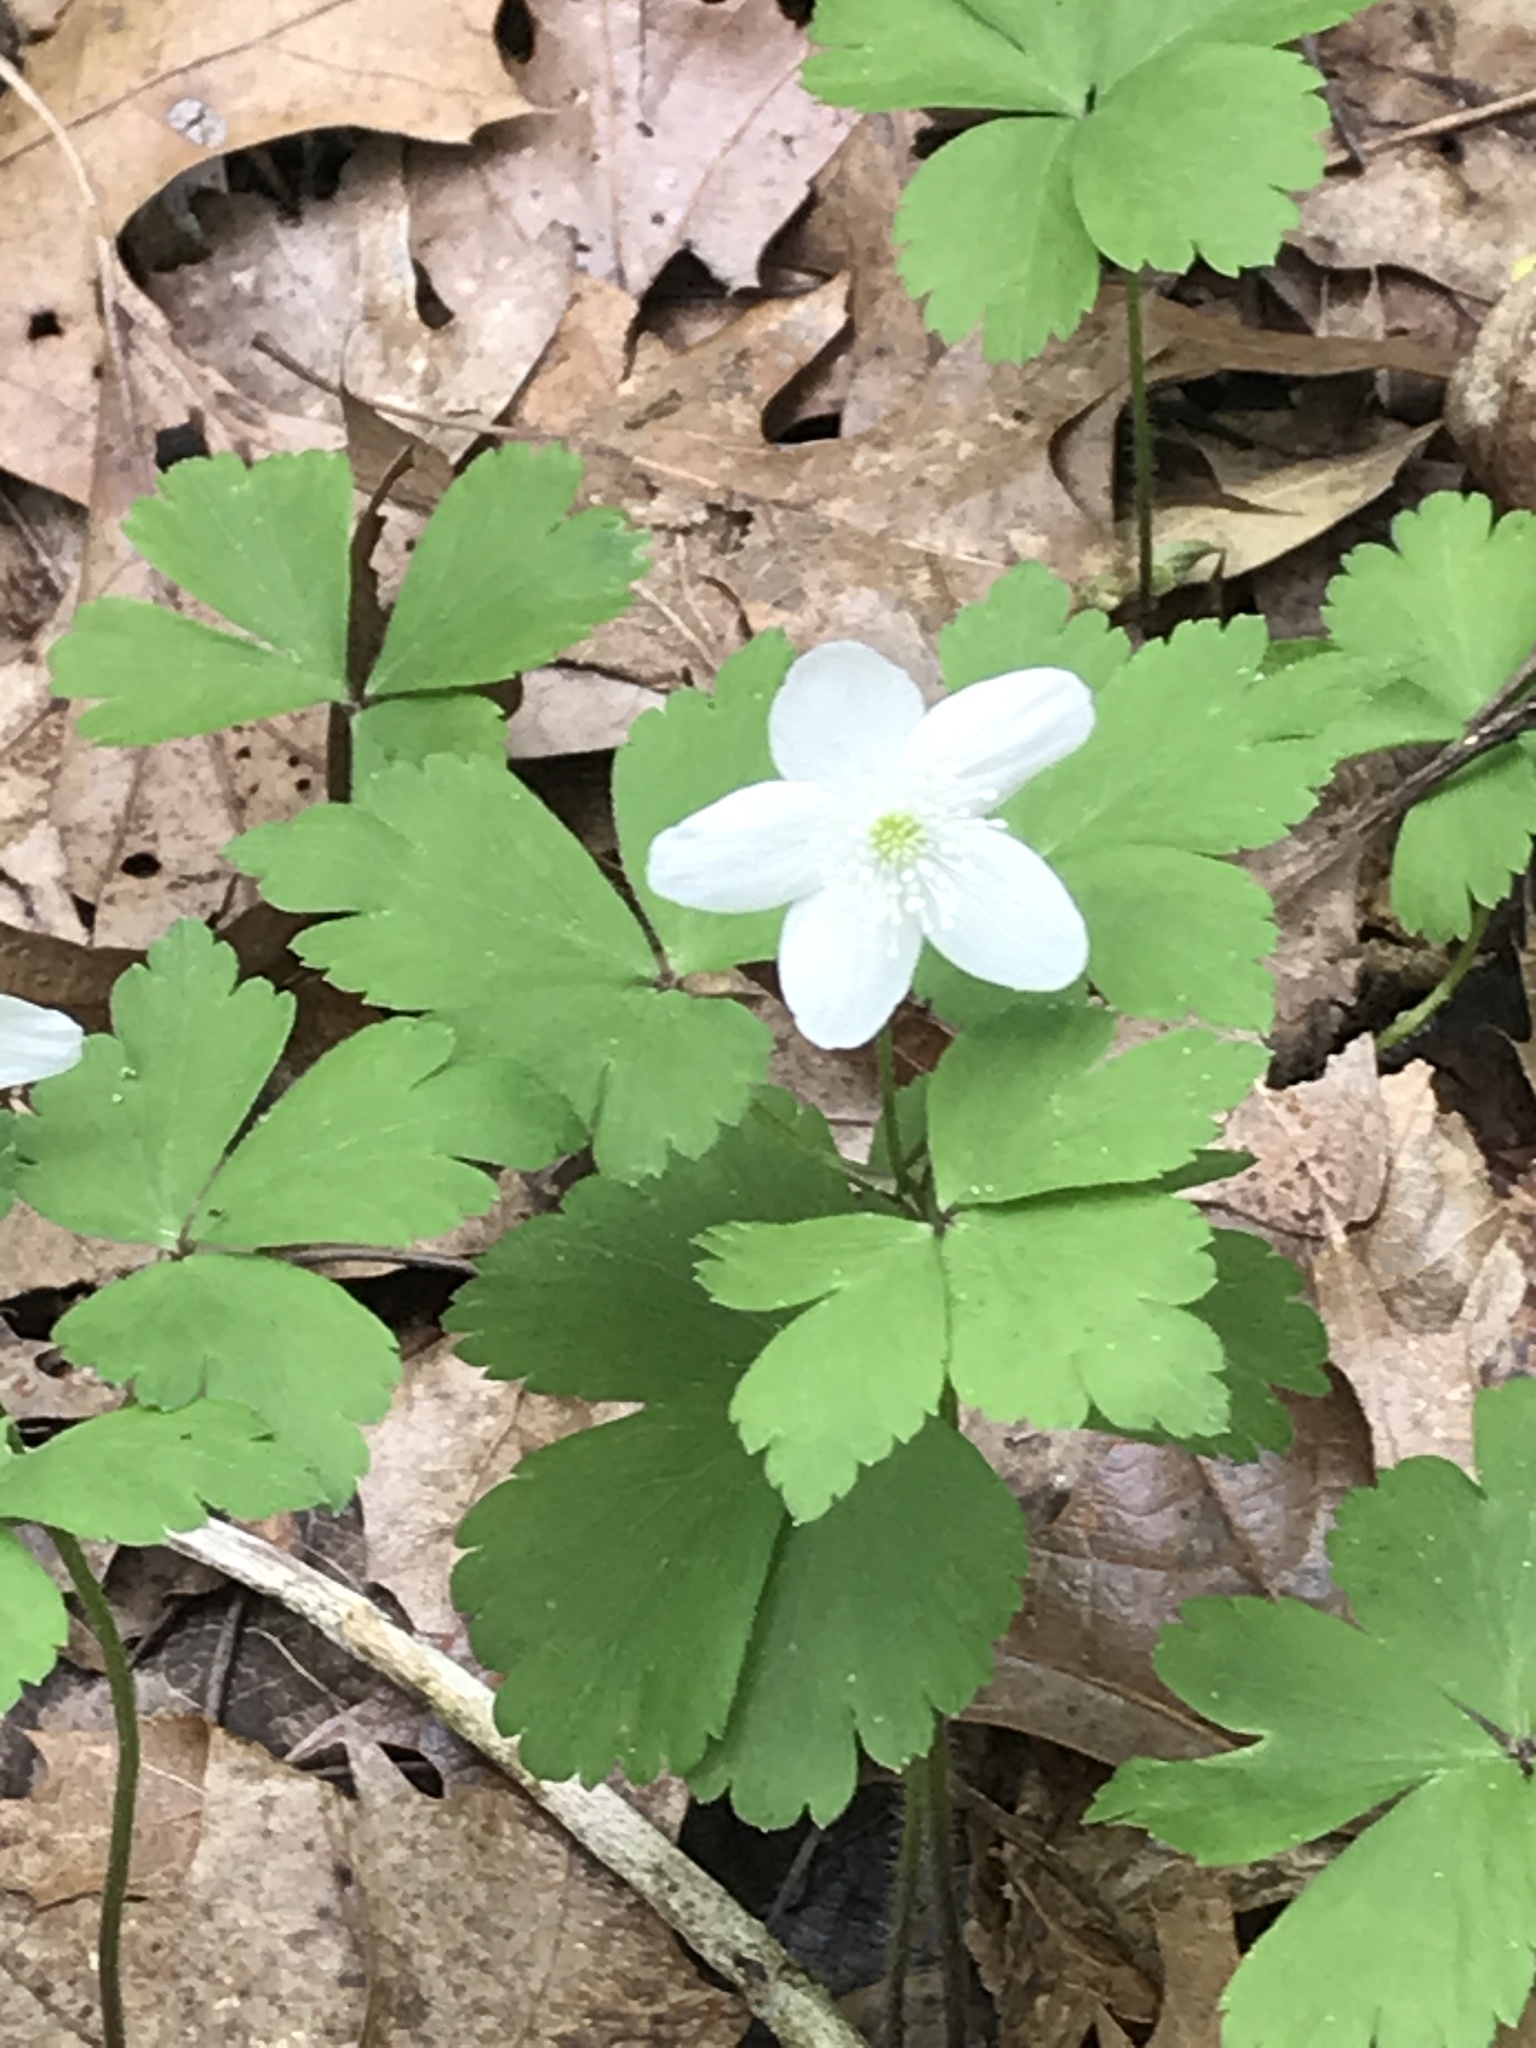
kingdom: Plantae
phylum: Tracheophyta
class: Magnoliopsida
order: Ranunculales
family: Ranunculaceae
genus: Anemone
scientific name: Anemone quinquefolia
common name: Wood anemone
